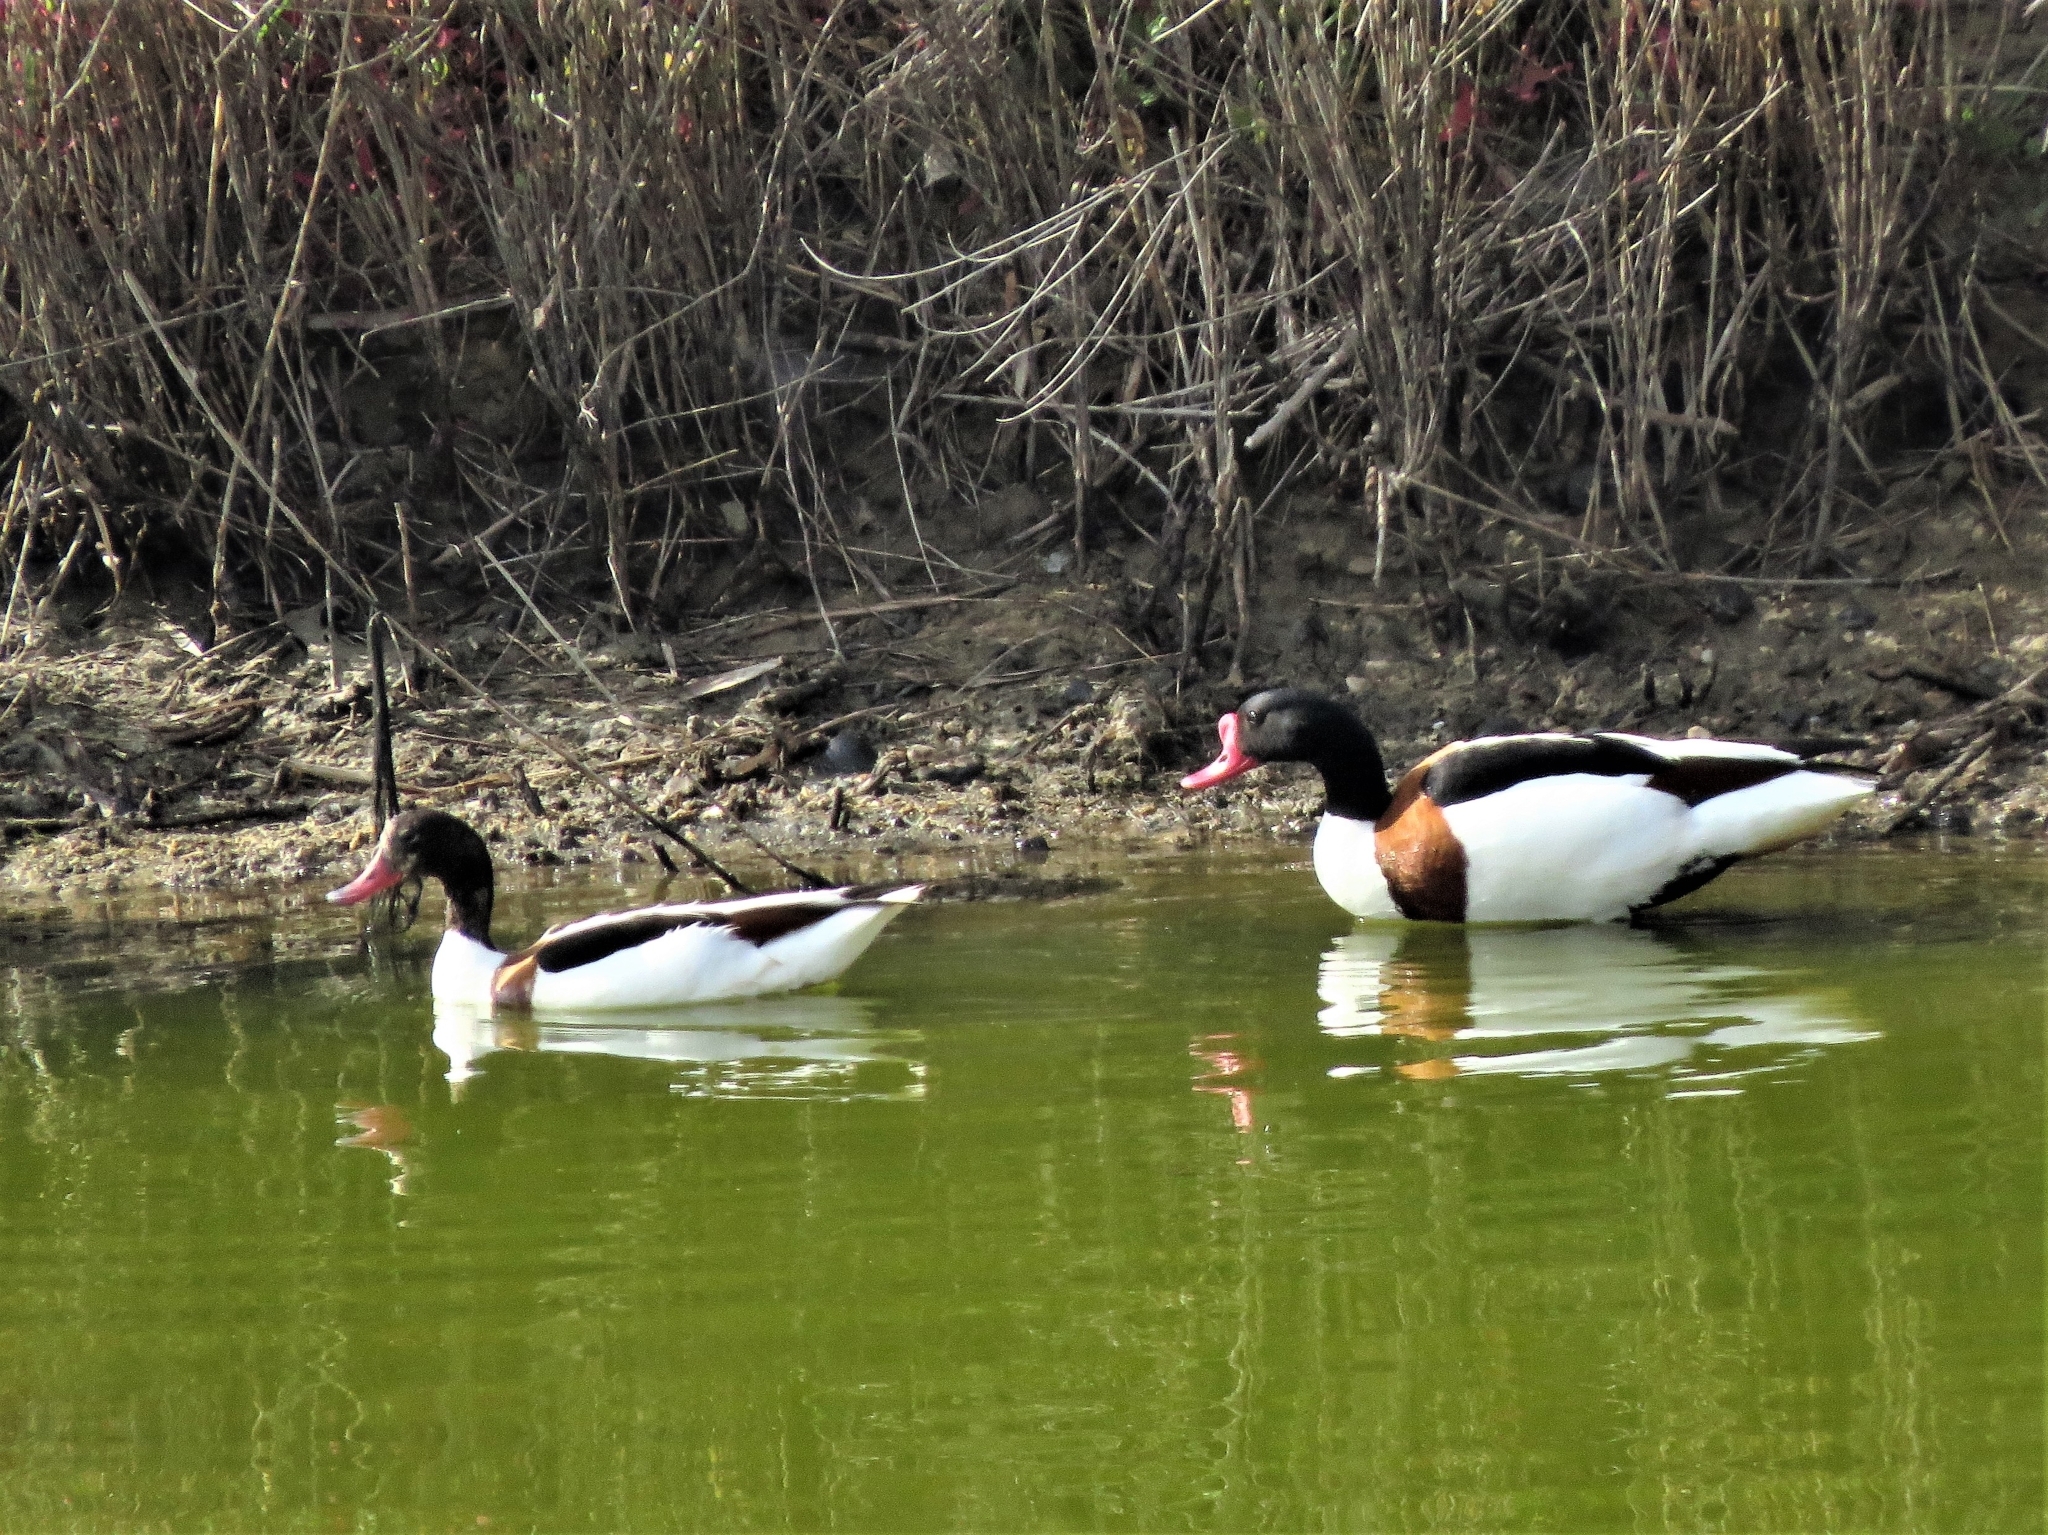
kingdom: Animalia
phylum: Chordata
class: Aves
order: Anseriformes
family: Anatidae
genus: Tadorna
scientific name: Tadorna tadorna
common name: Common shelduck
